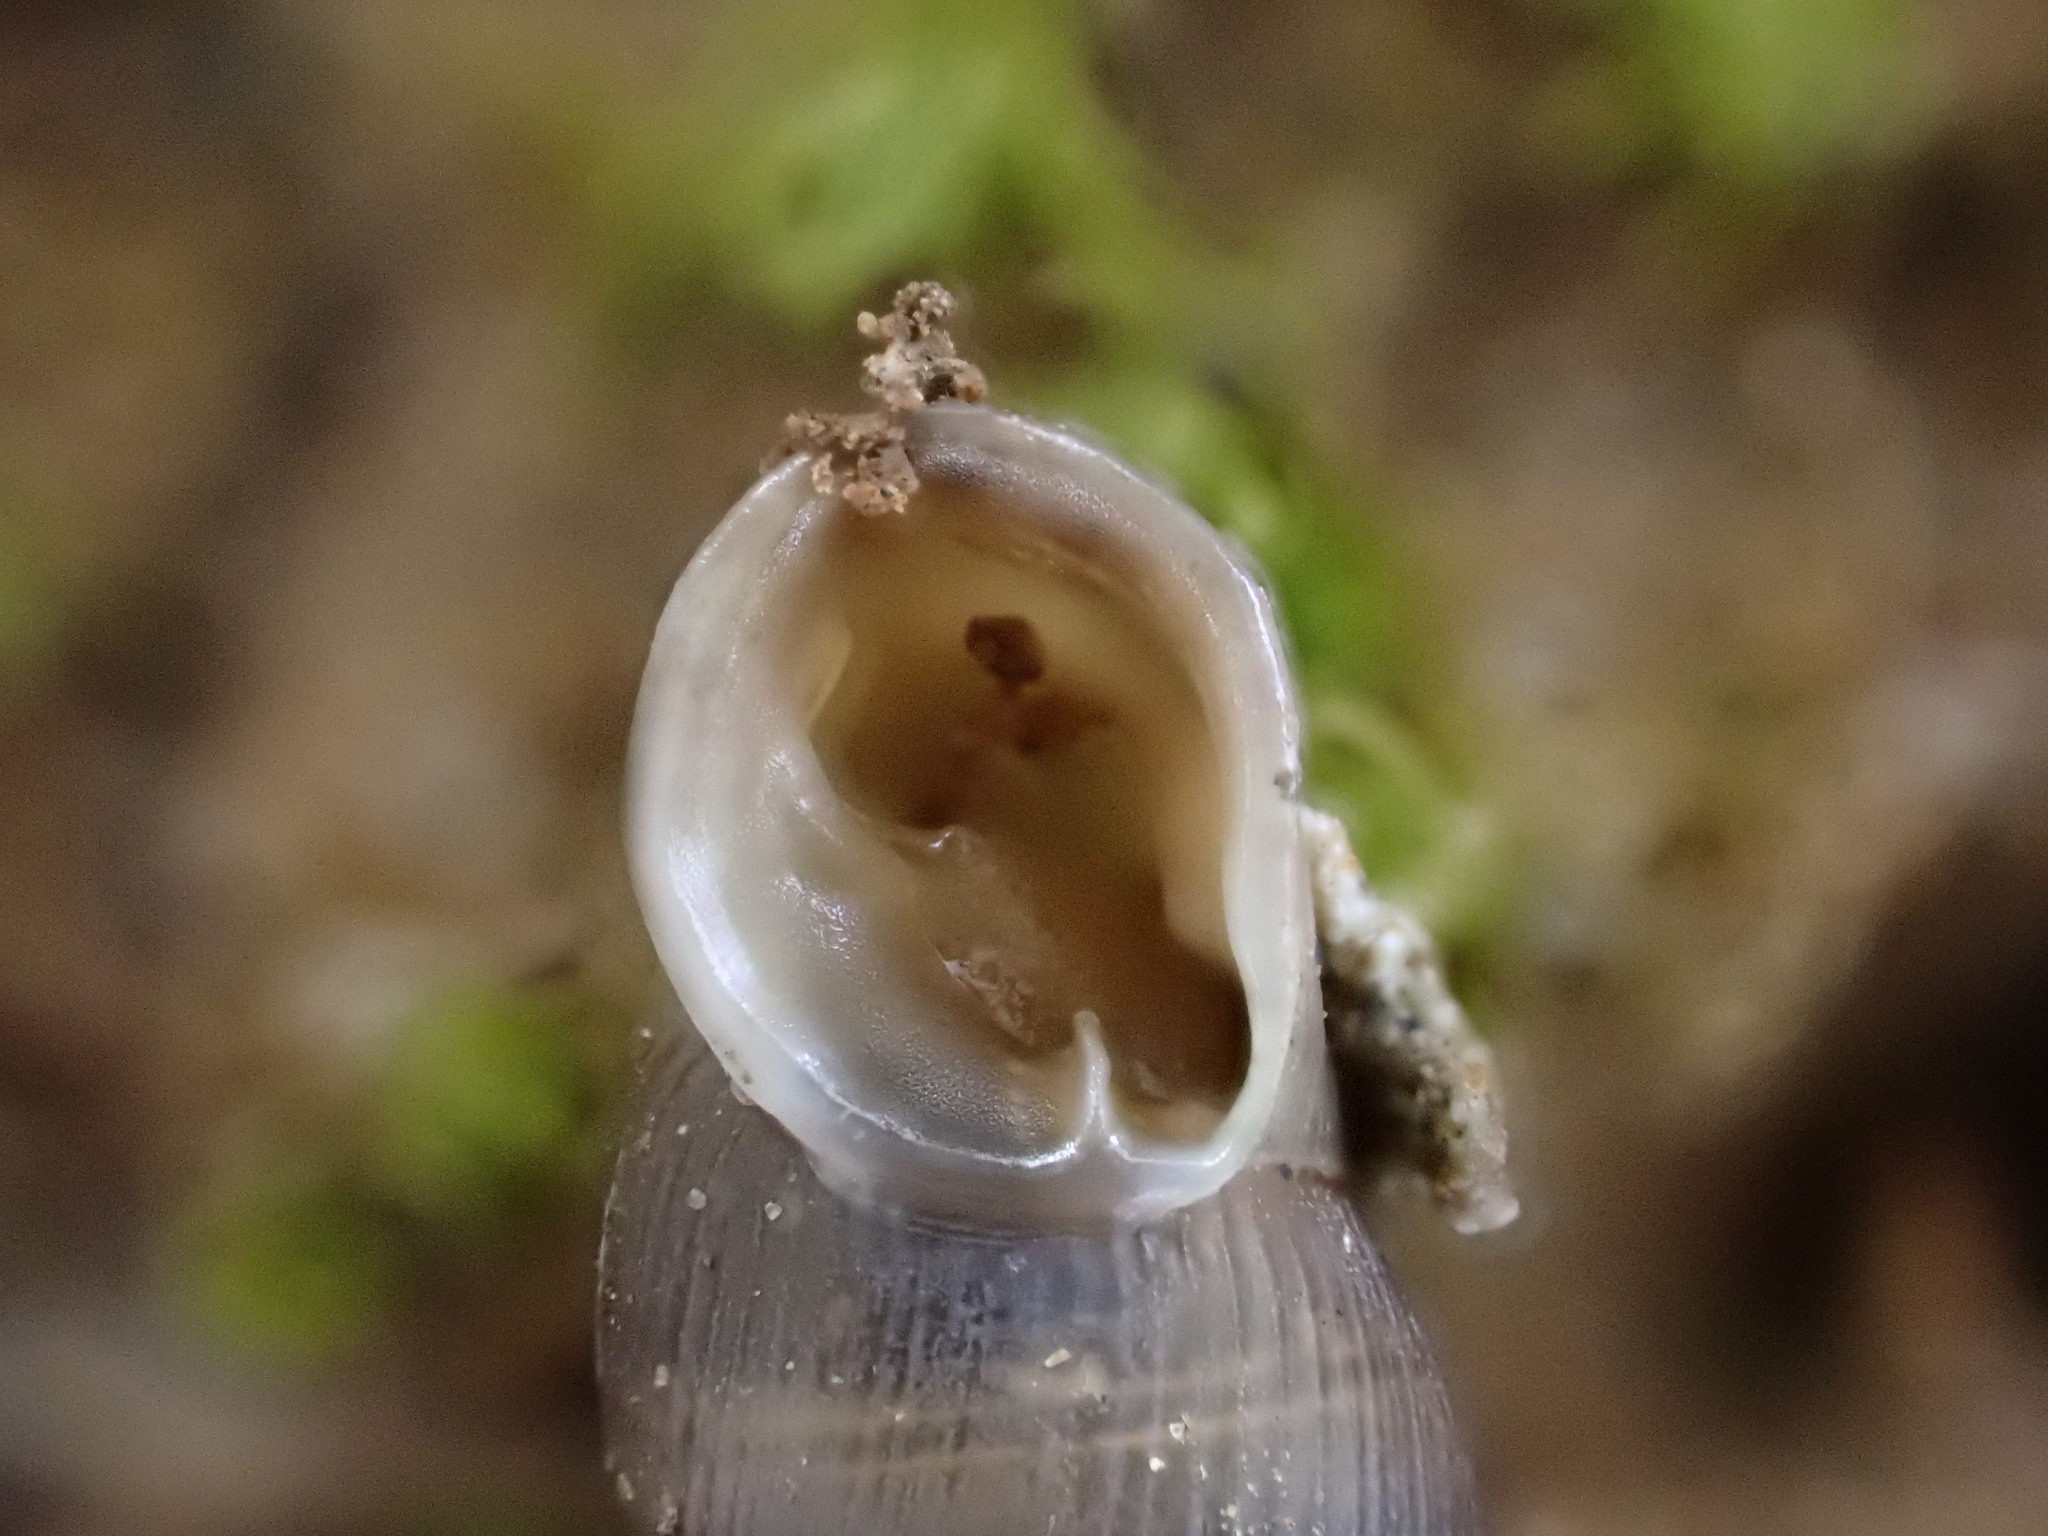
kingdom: Animalia
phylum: Mollusca
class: Gastropoda
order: Stylommatophora
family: Clausiliidae
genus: Papillifera
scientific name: Papillifera solida
